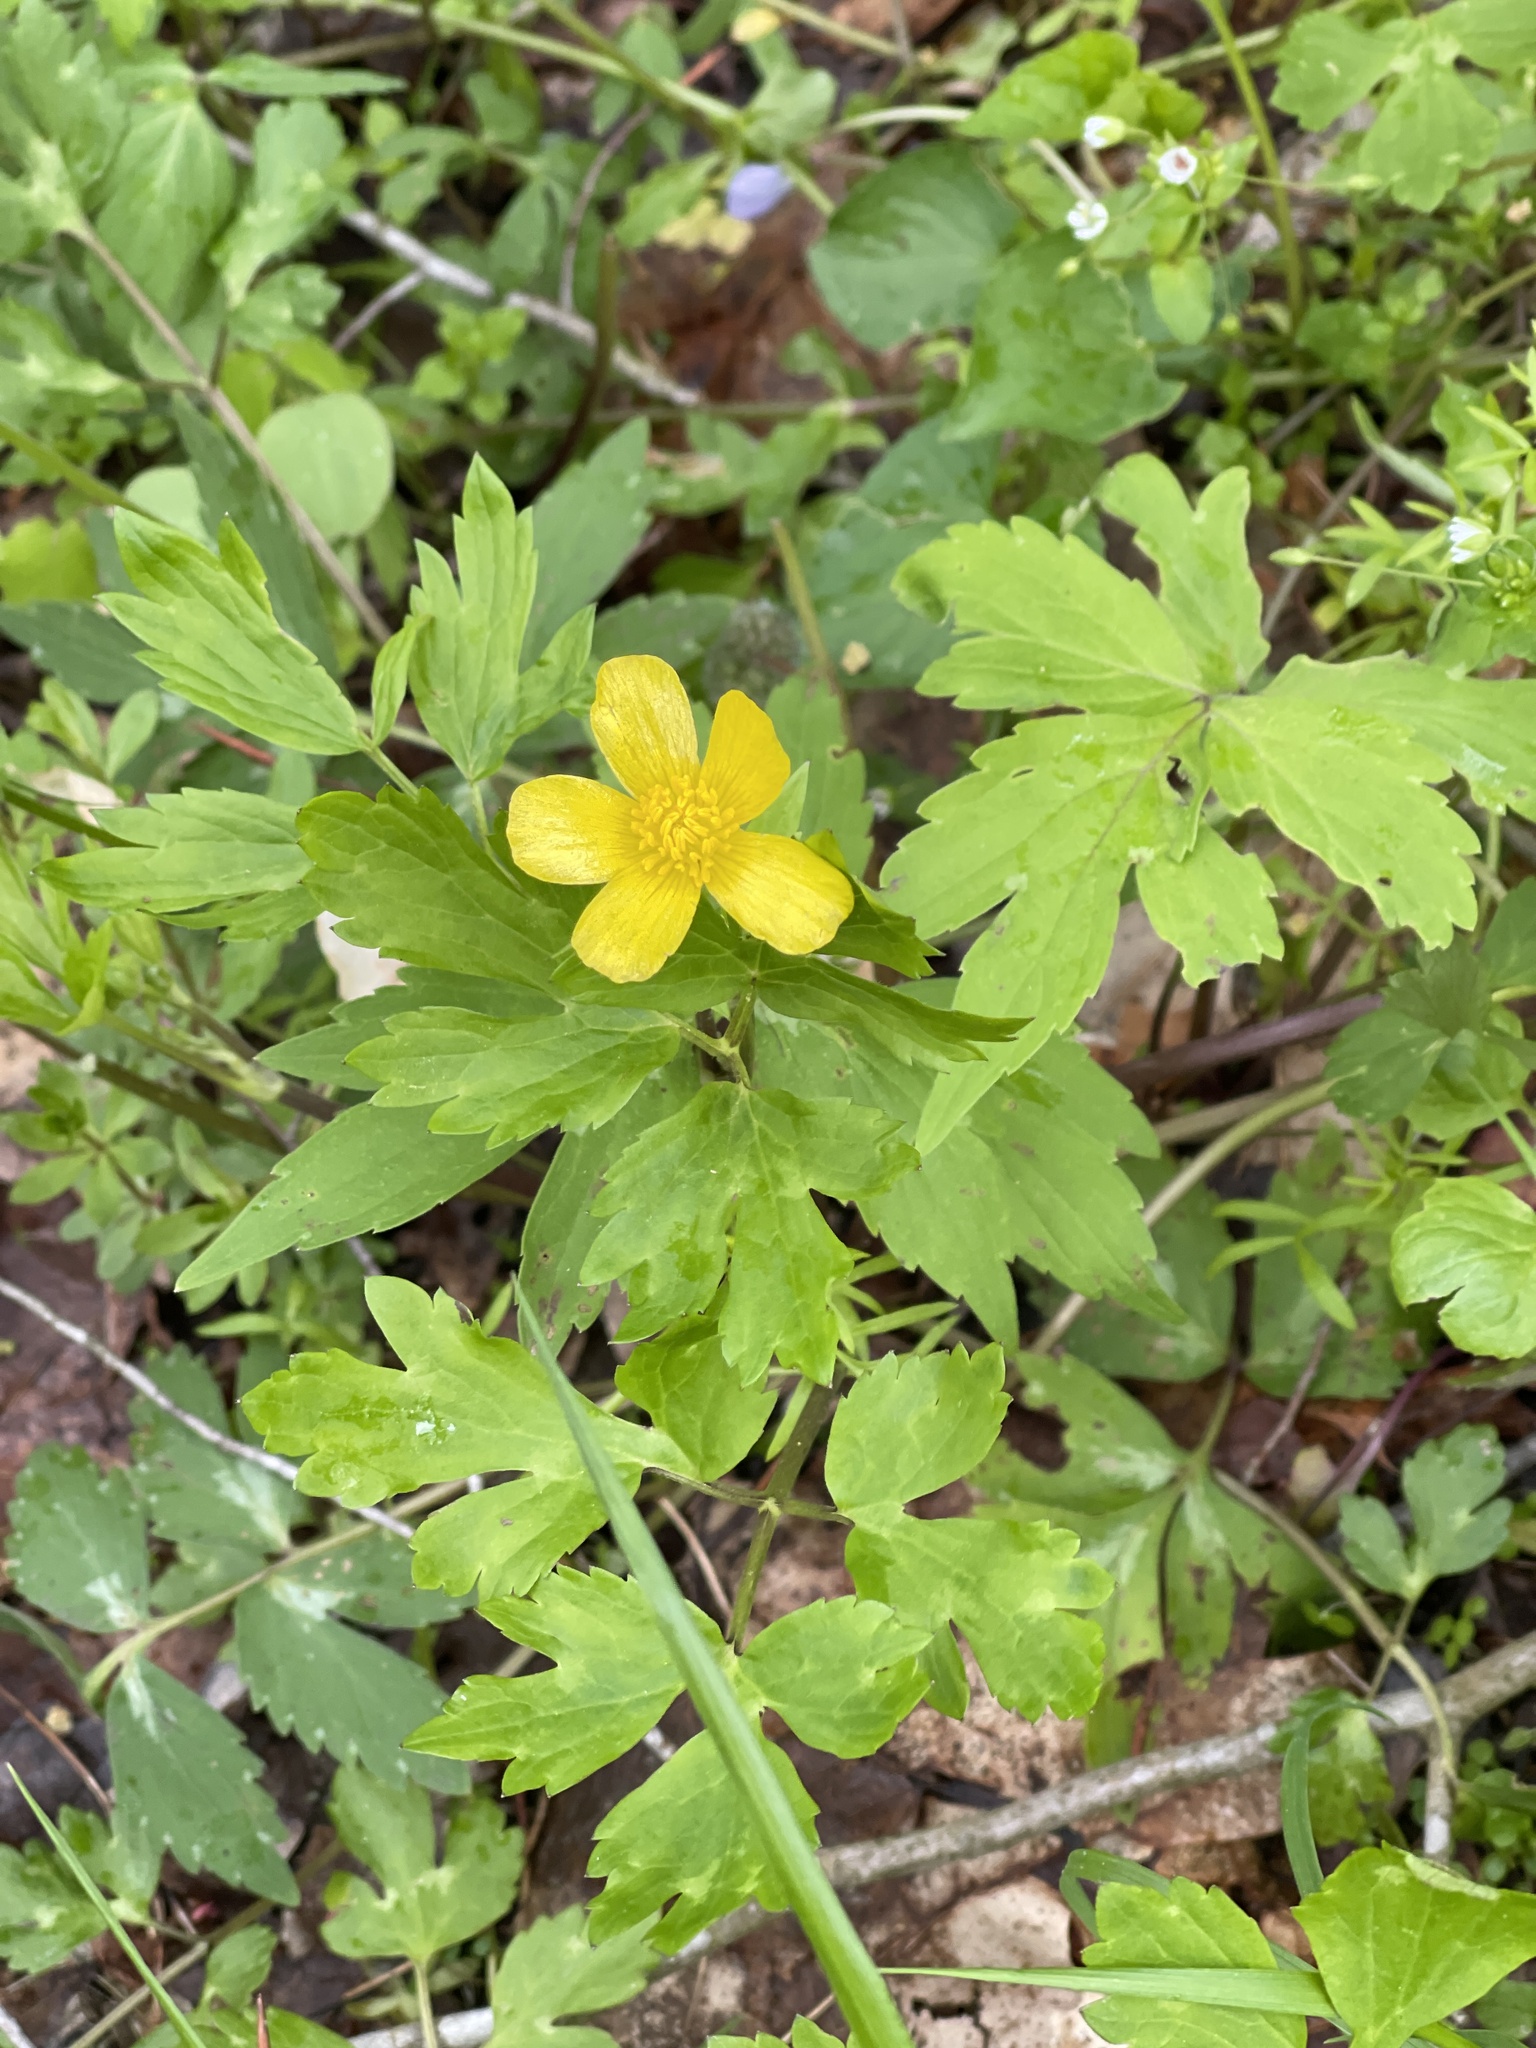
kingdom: Plantae
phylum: Tracheophyta
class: Magnoliopsida
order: Ranunculales
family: Ranunculaceae
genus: Ranunculus
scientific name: Ranunculus hispidus
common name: Bristly buttercup
